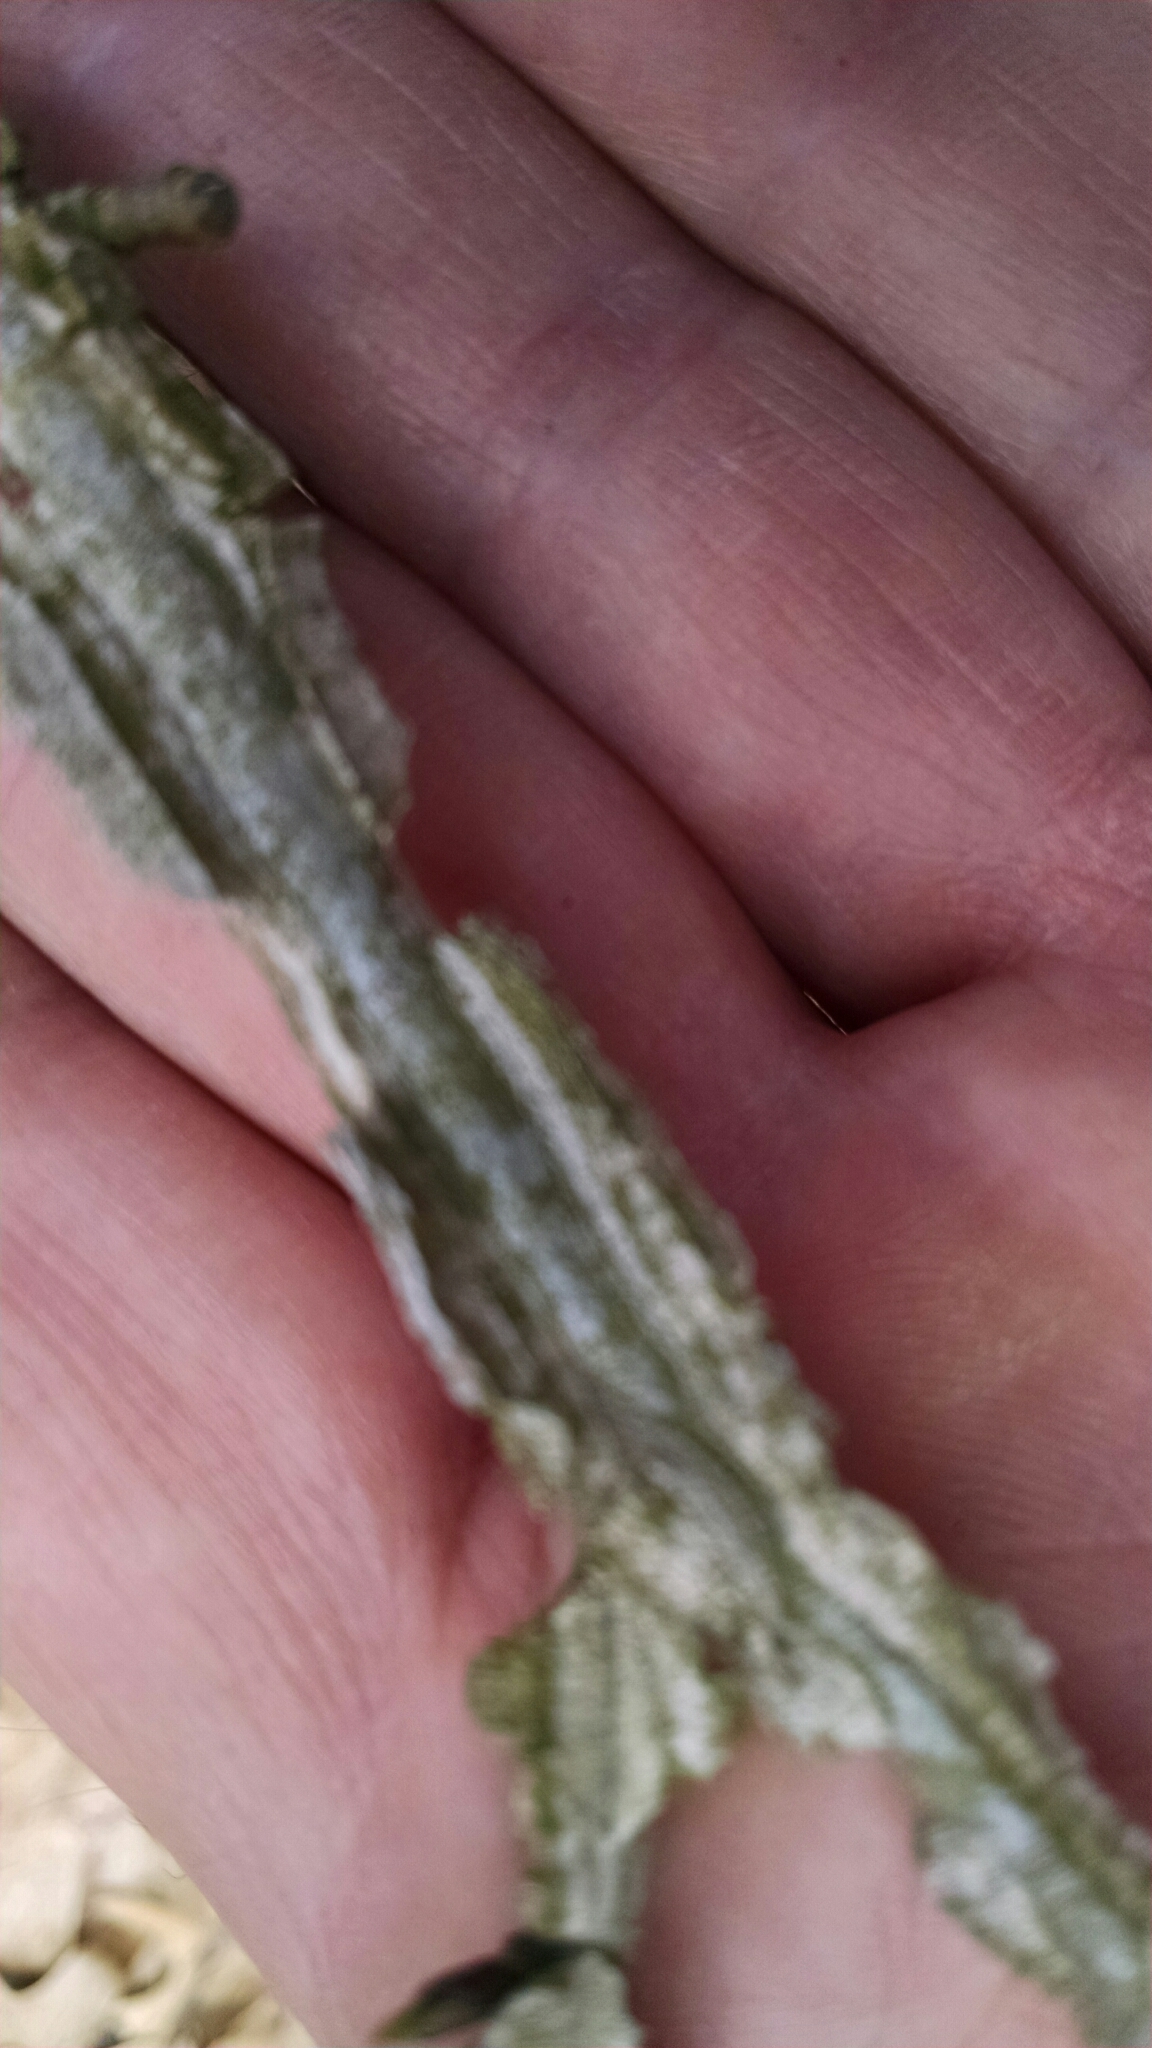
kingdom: Plantae
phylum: Tracheophyta
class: Magnoliopsida
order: Saxifragales
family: Altingiaceae
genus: Liquidambar
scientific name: Liquidambar styraciflua
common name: Sweet gum
